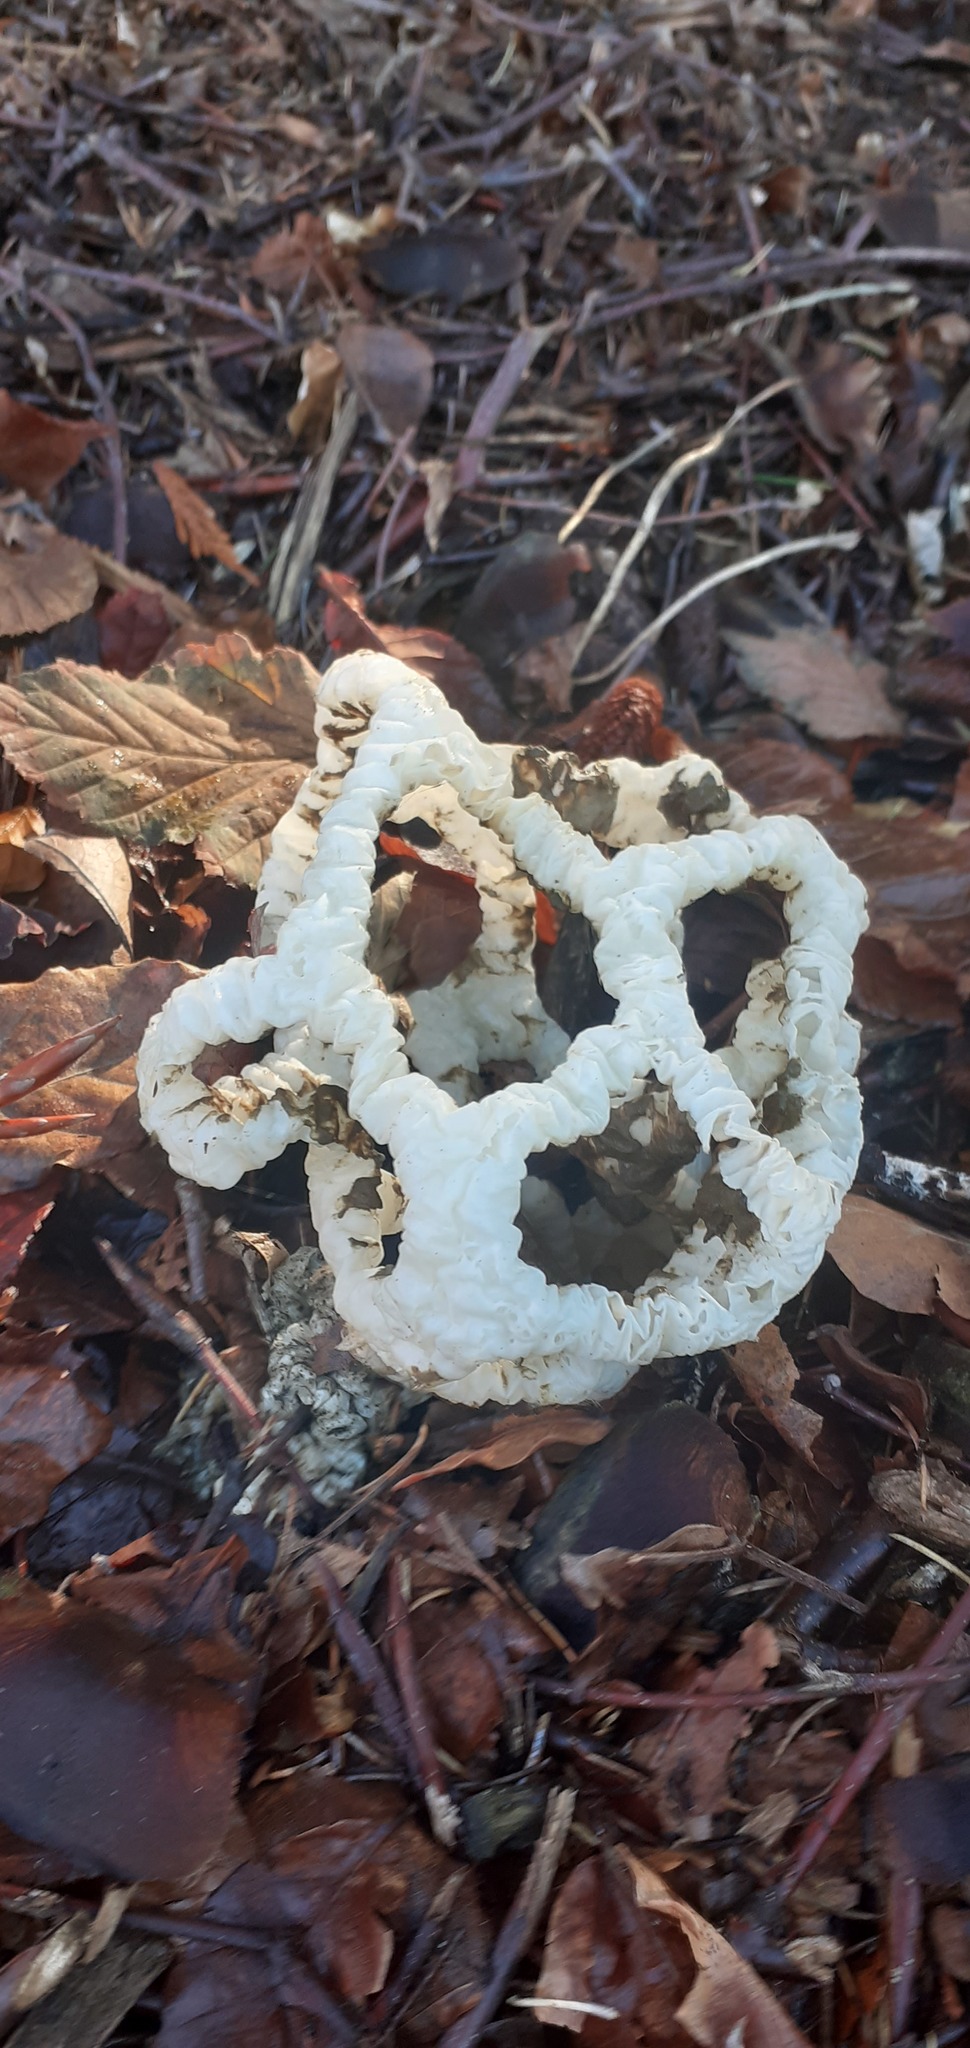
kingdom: Fungi
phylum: Basidiomycota
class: Agaricomycetes
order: Phallales
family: Phallaceae
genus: Ileodictyon
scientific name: Ileodictyon cibarium
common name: Basket fungus
